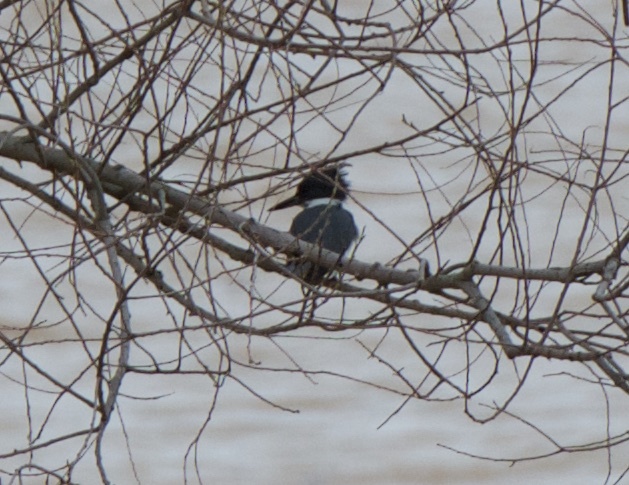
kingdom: Animalia
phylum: Chordata
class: Aves
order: Coraciiformes
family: Alcedinidae
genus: Megaceryle
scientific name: Megaceryle alcyon
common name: Belted kingfisher
